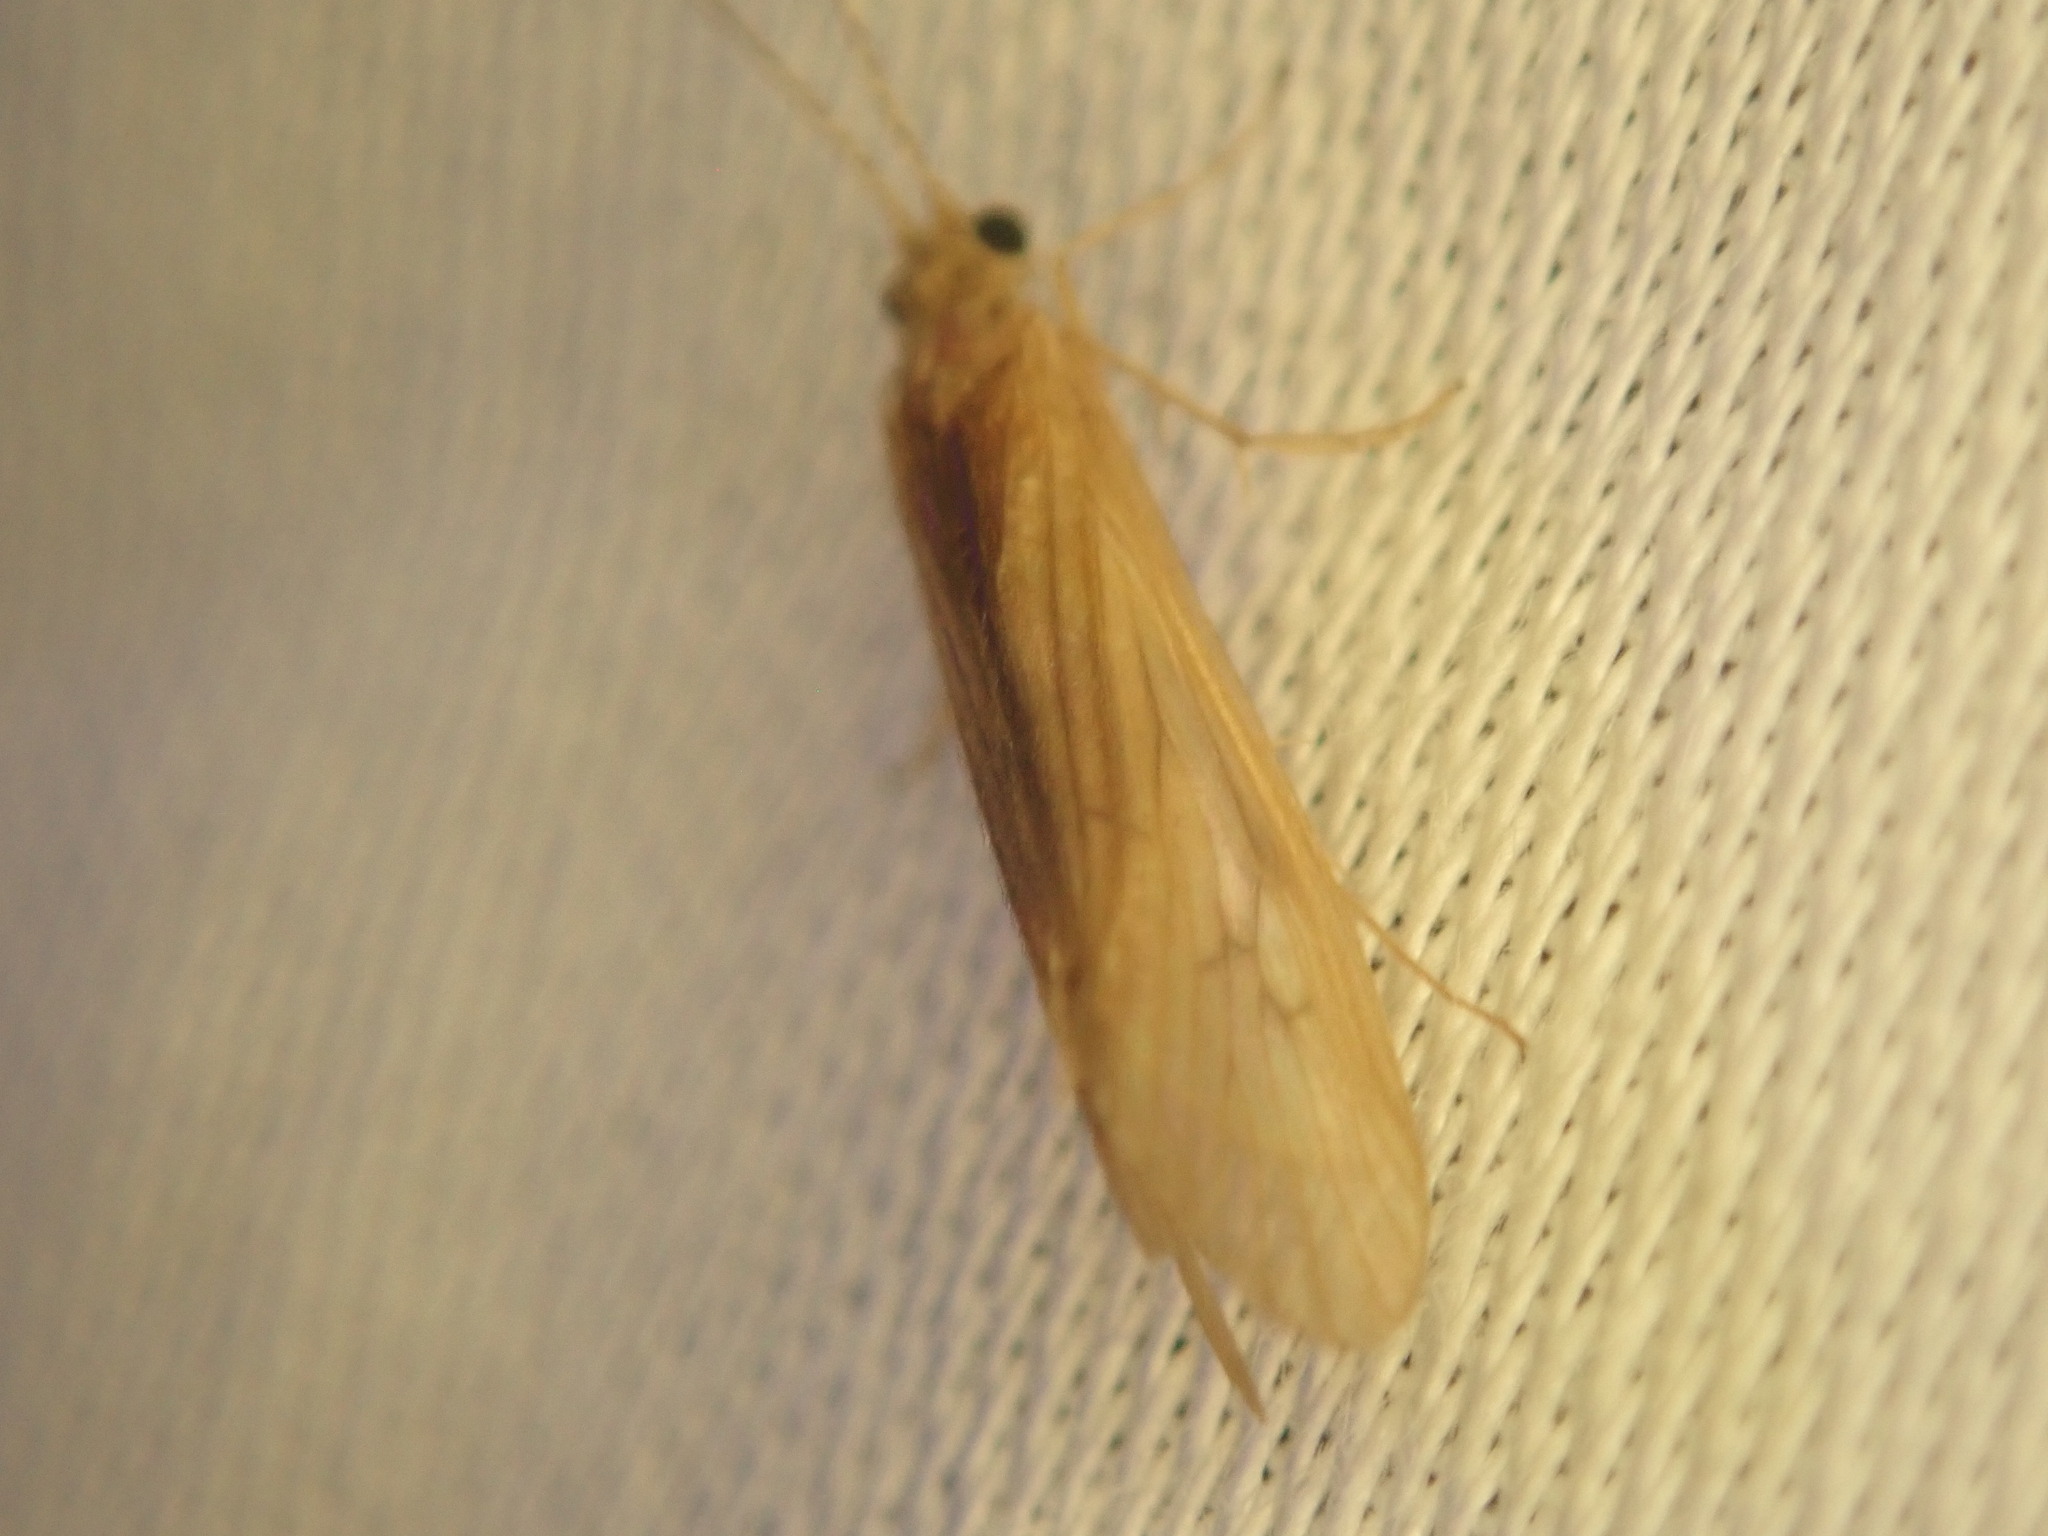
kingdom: Animalia
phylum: Arthropoda
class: Insecta
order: Trichoptera
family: Hydropsychidae
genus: Potamyia
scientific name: Potamyia flava
